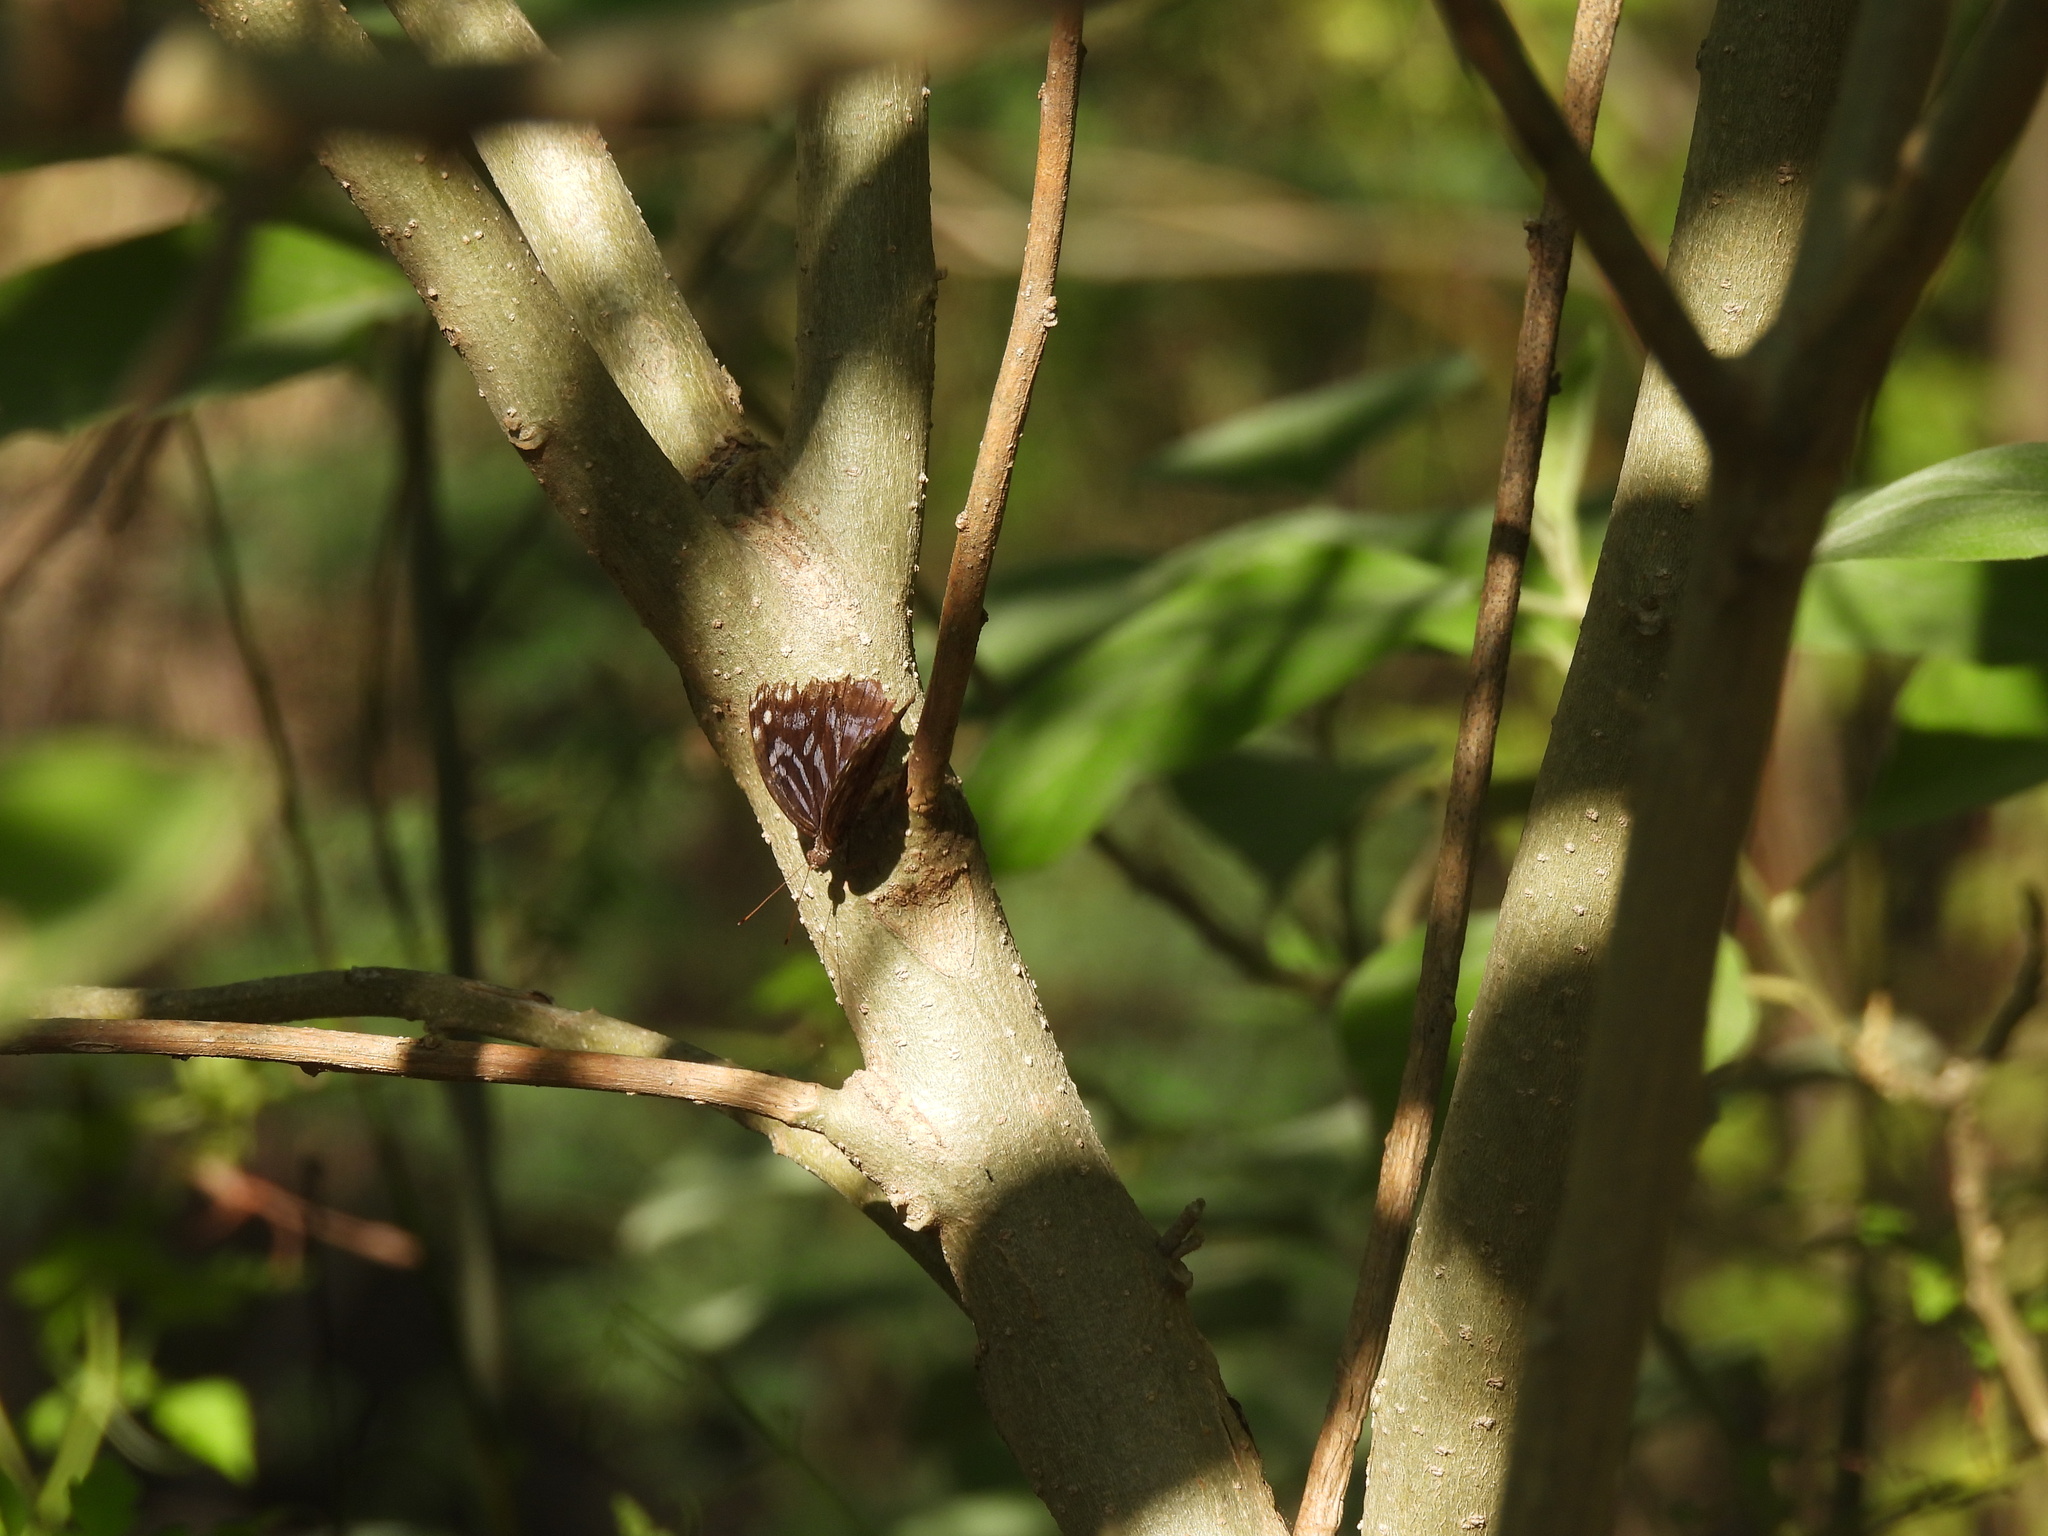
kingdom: Animalia
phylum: Arthropoda
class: Insecta
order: Lepidoptera
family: Nymphalidae
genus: Myscelia
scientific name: Myscelia ethusa
